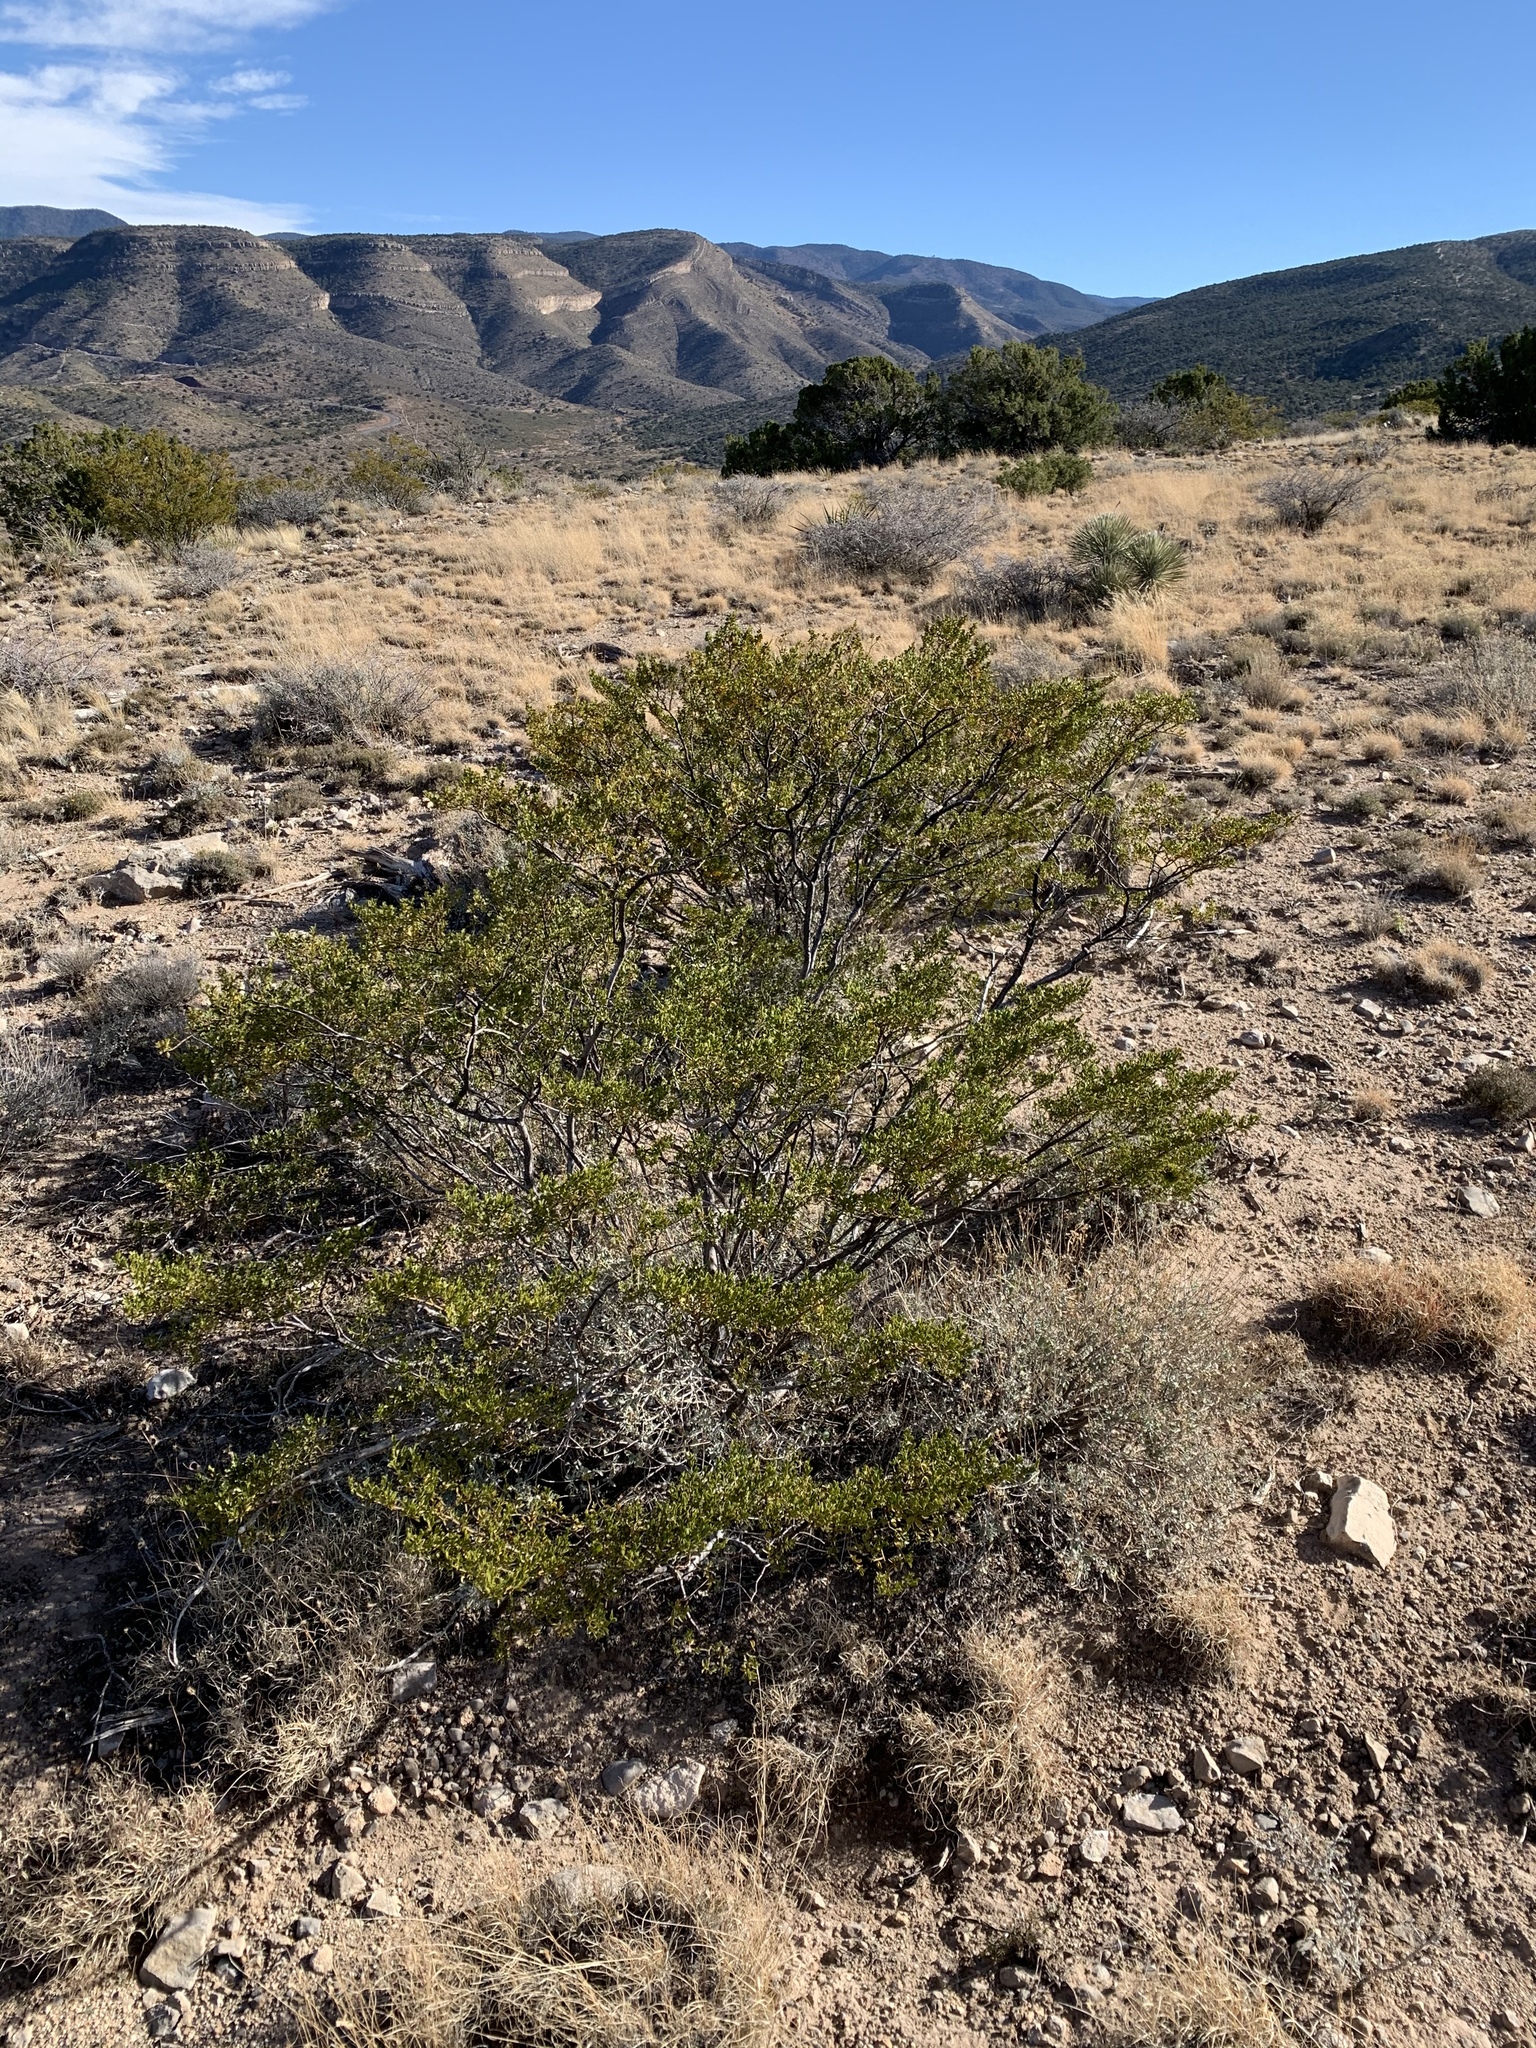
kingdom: Plantae
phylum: Tracheophyta
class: Magnoliopsida
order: Zygophyllales
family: Zygophyllaceae
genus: Larrea
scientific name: Larrea tridentata
